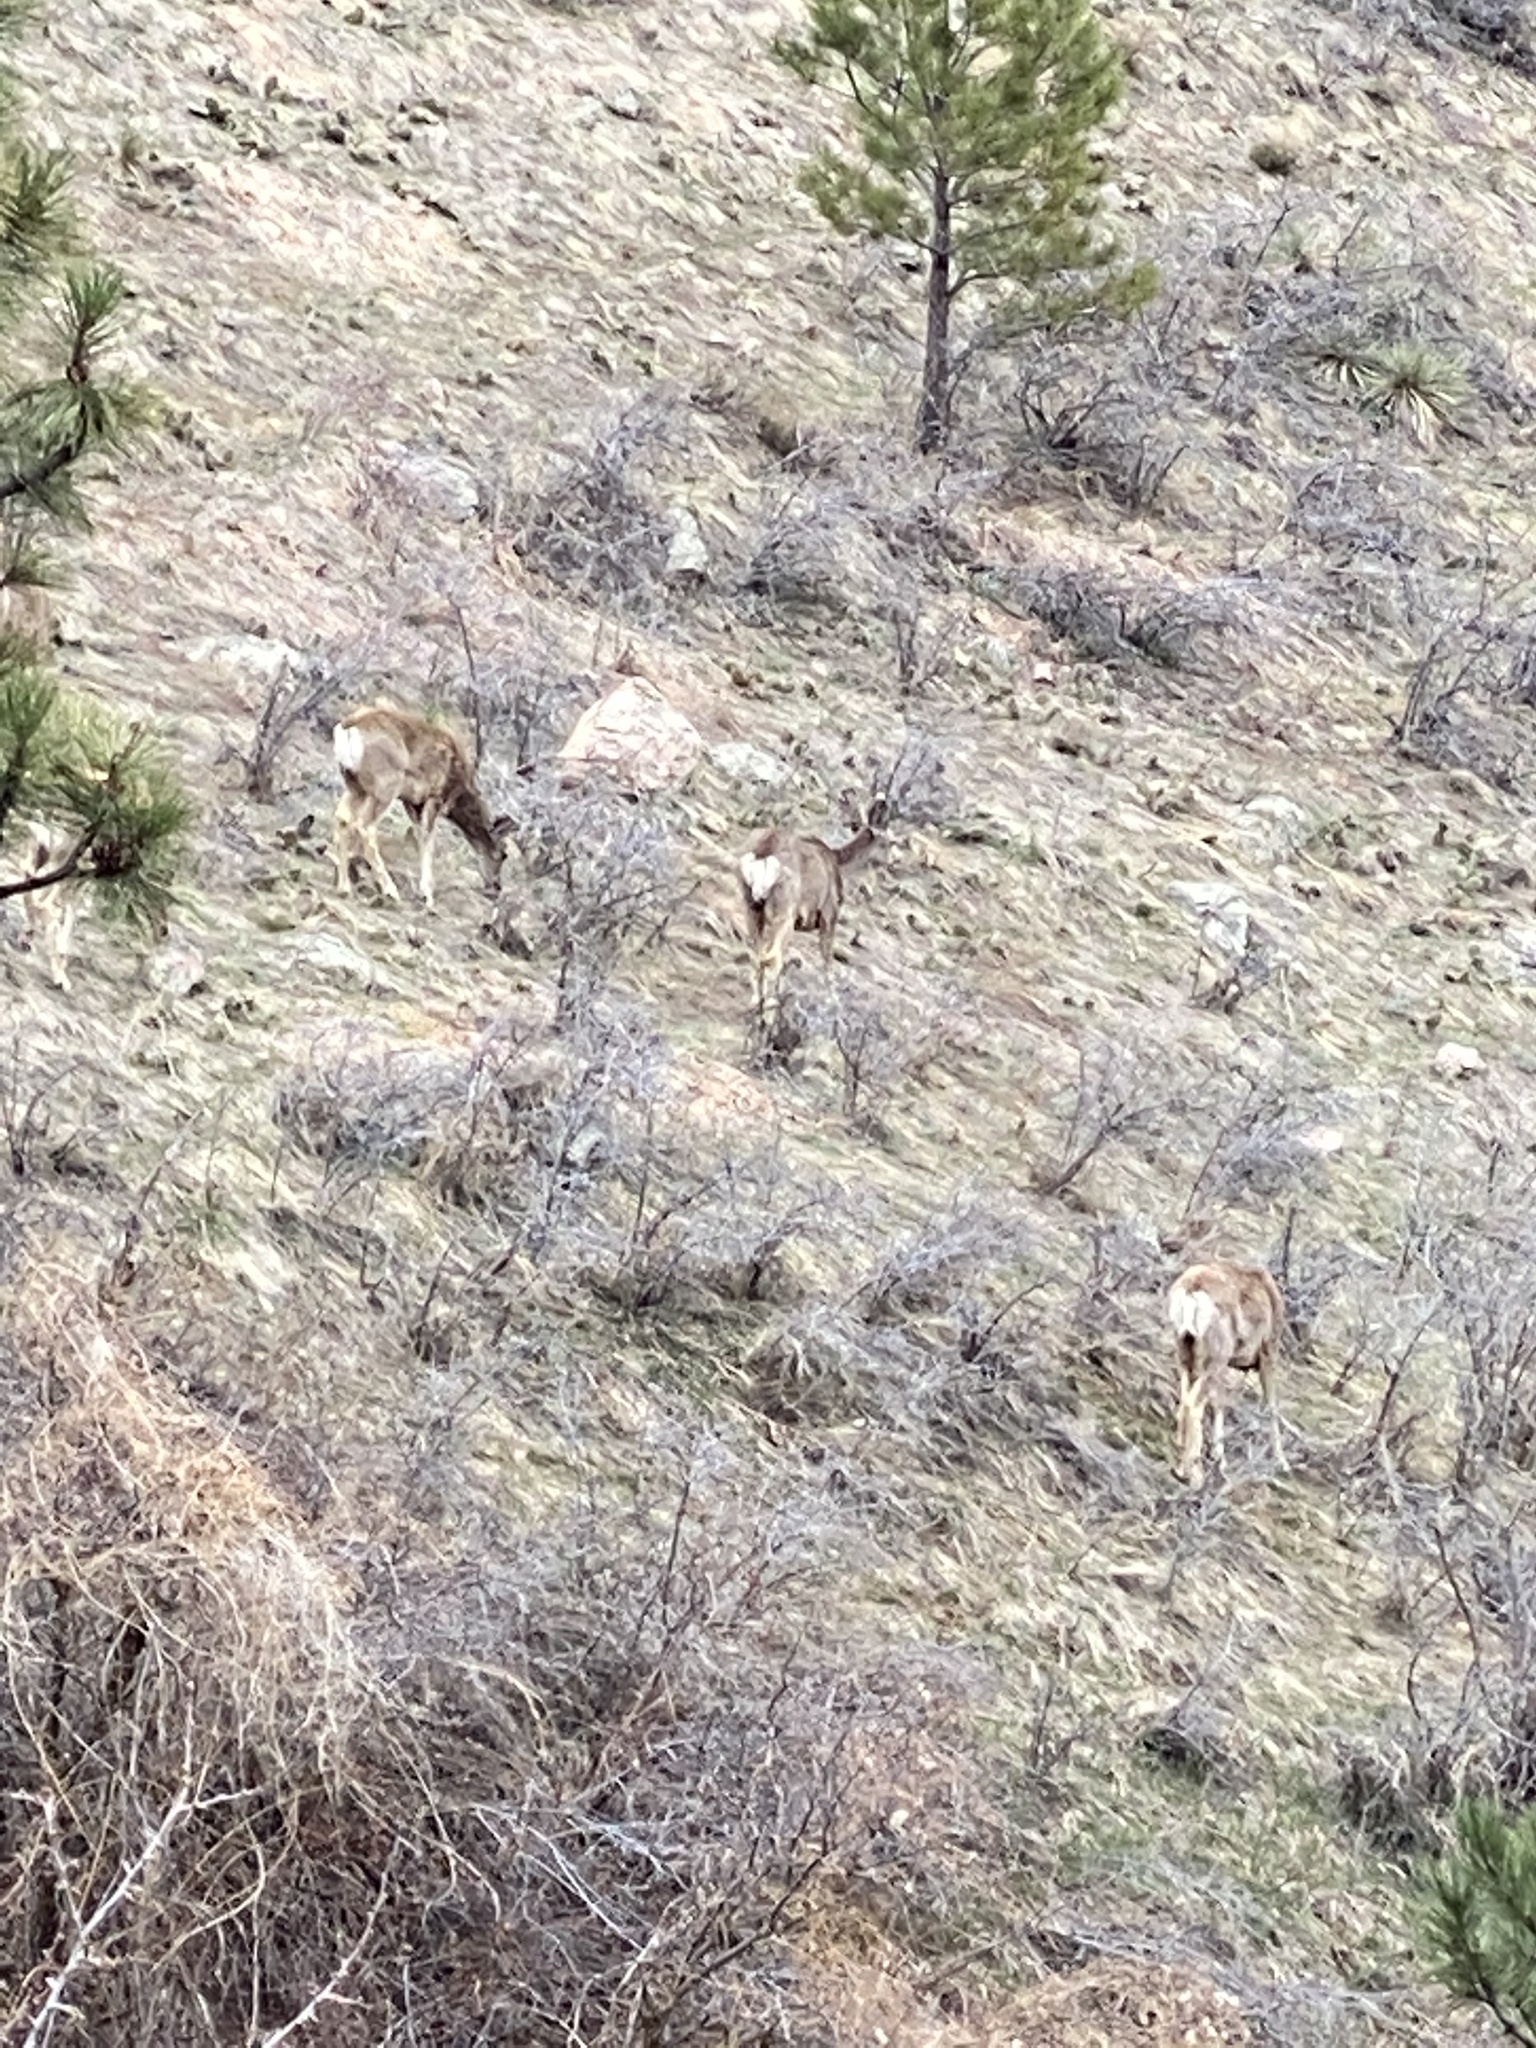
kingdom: Animalia
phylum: Chordata
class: Mammalia
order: Artiodactyla
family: Cervidae
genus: Odocoileus
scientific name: Odocoileus hemionus
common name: Mule deer
